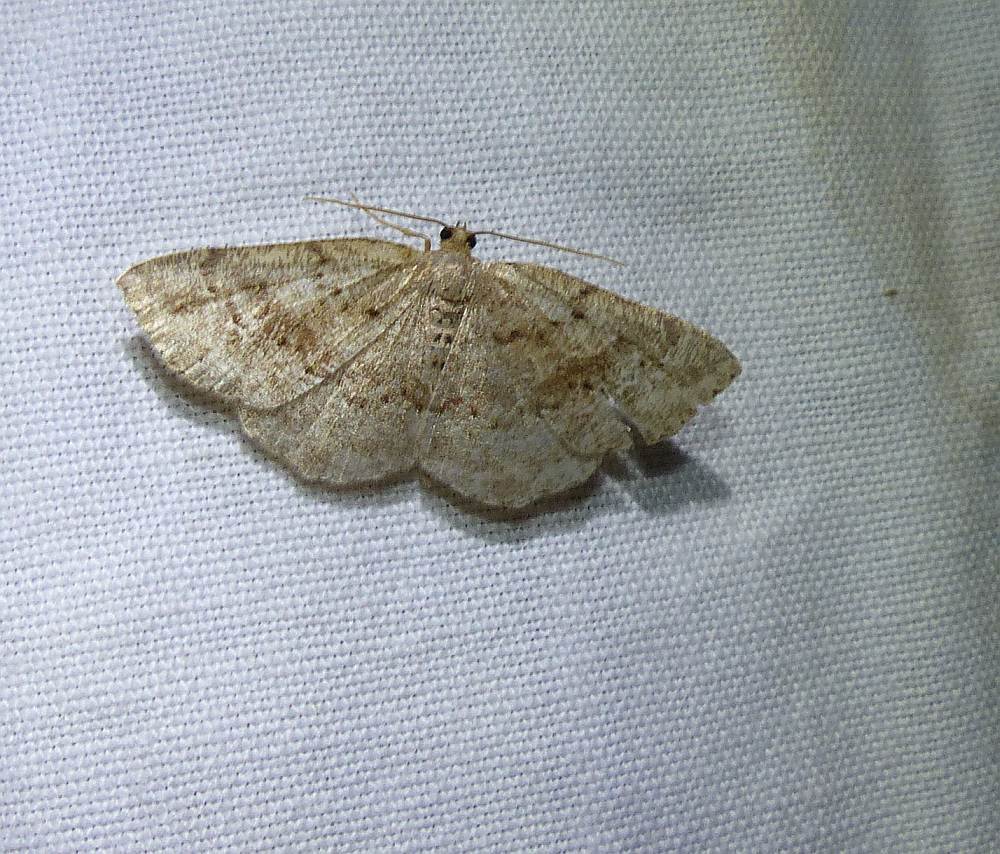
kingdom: Animalia
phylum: Arthropoda
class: Insecta
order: Lepidoptera
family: Geometridae
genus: Homochlodes
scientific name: Homochlodes fritillaria
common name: Pale homochlodes
